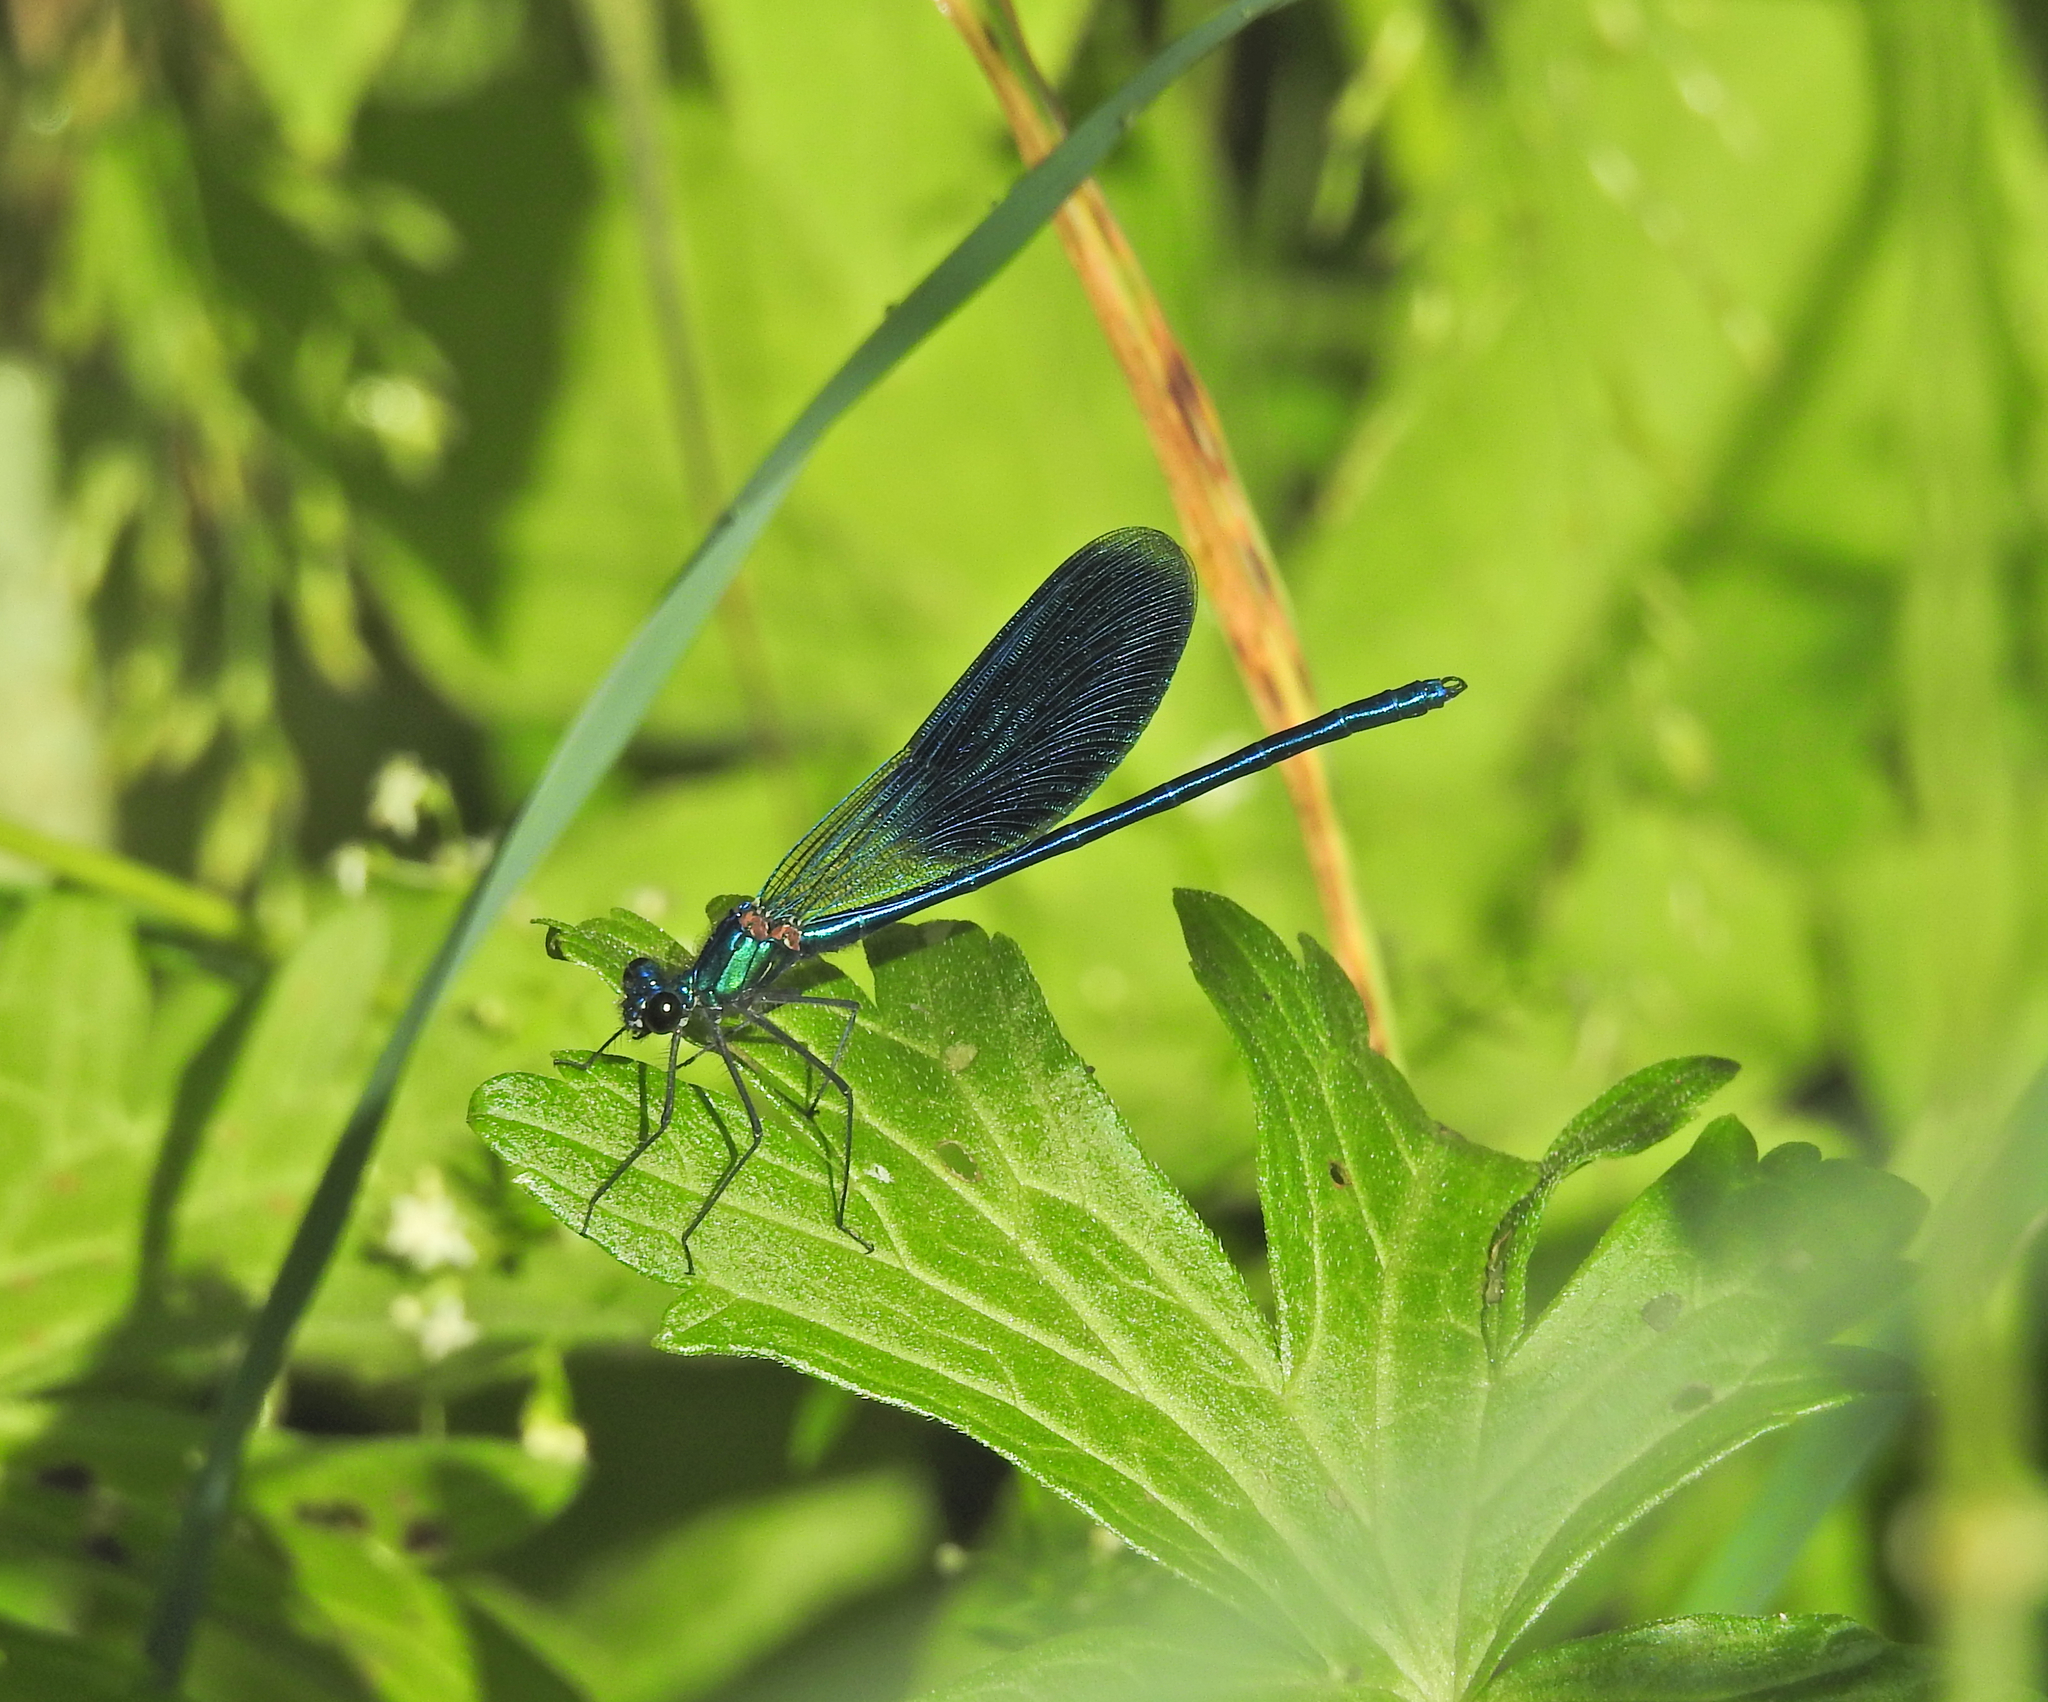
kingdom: Animalia
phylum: Arthropoda
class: Insecta
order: Odonata
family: Calopterygidae
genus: Calopteryx
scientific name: Calopteryx splendens
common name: Banded demoiselle
